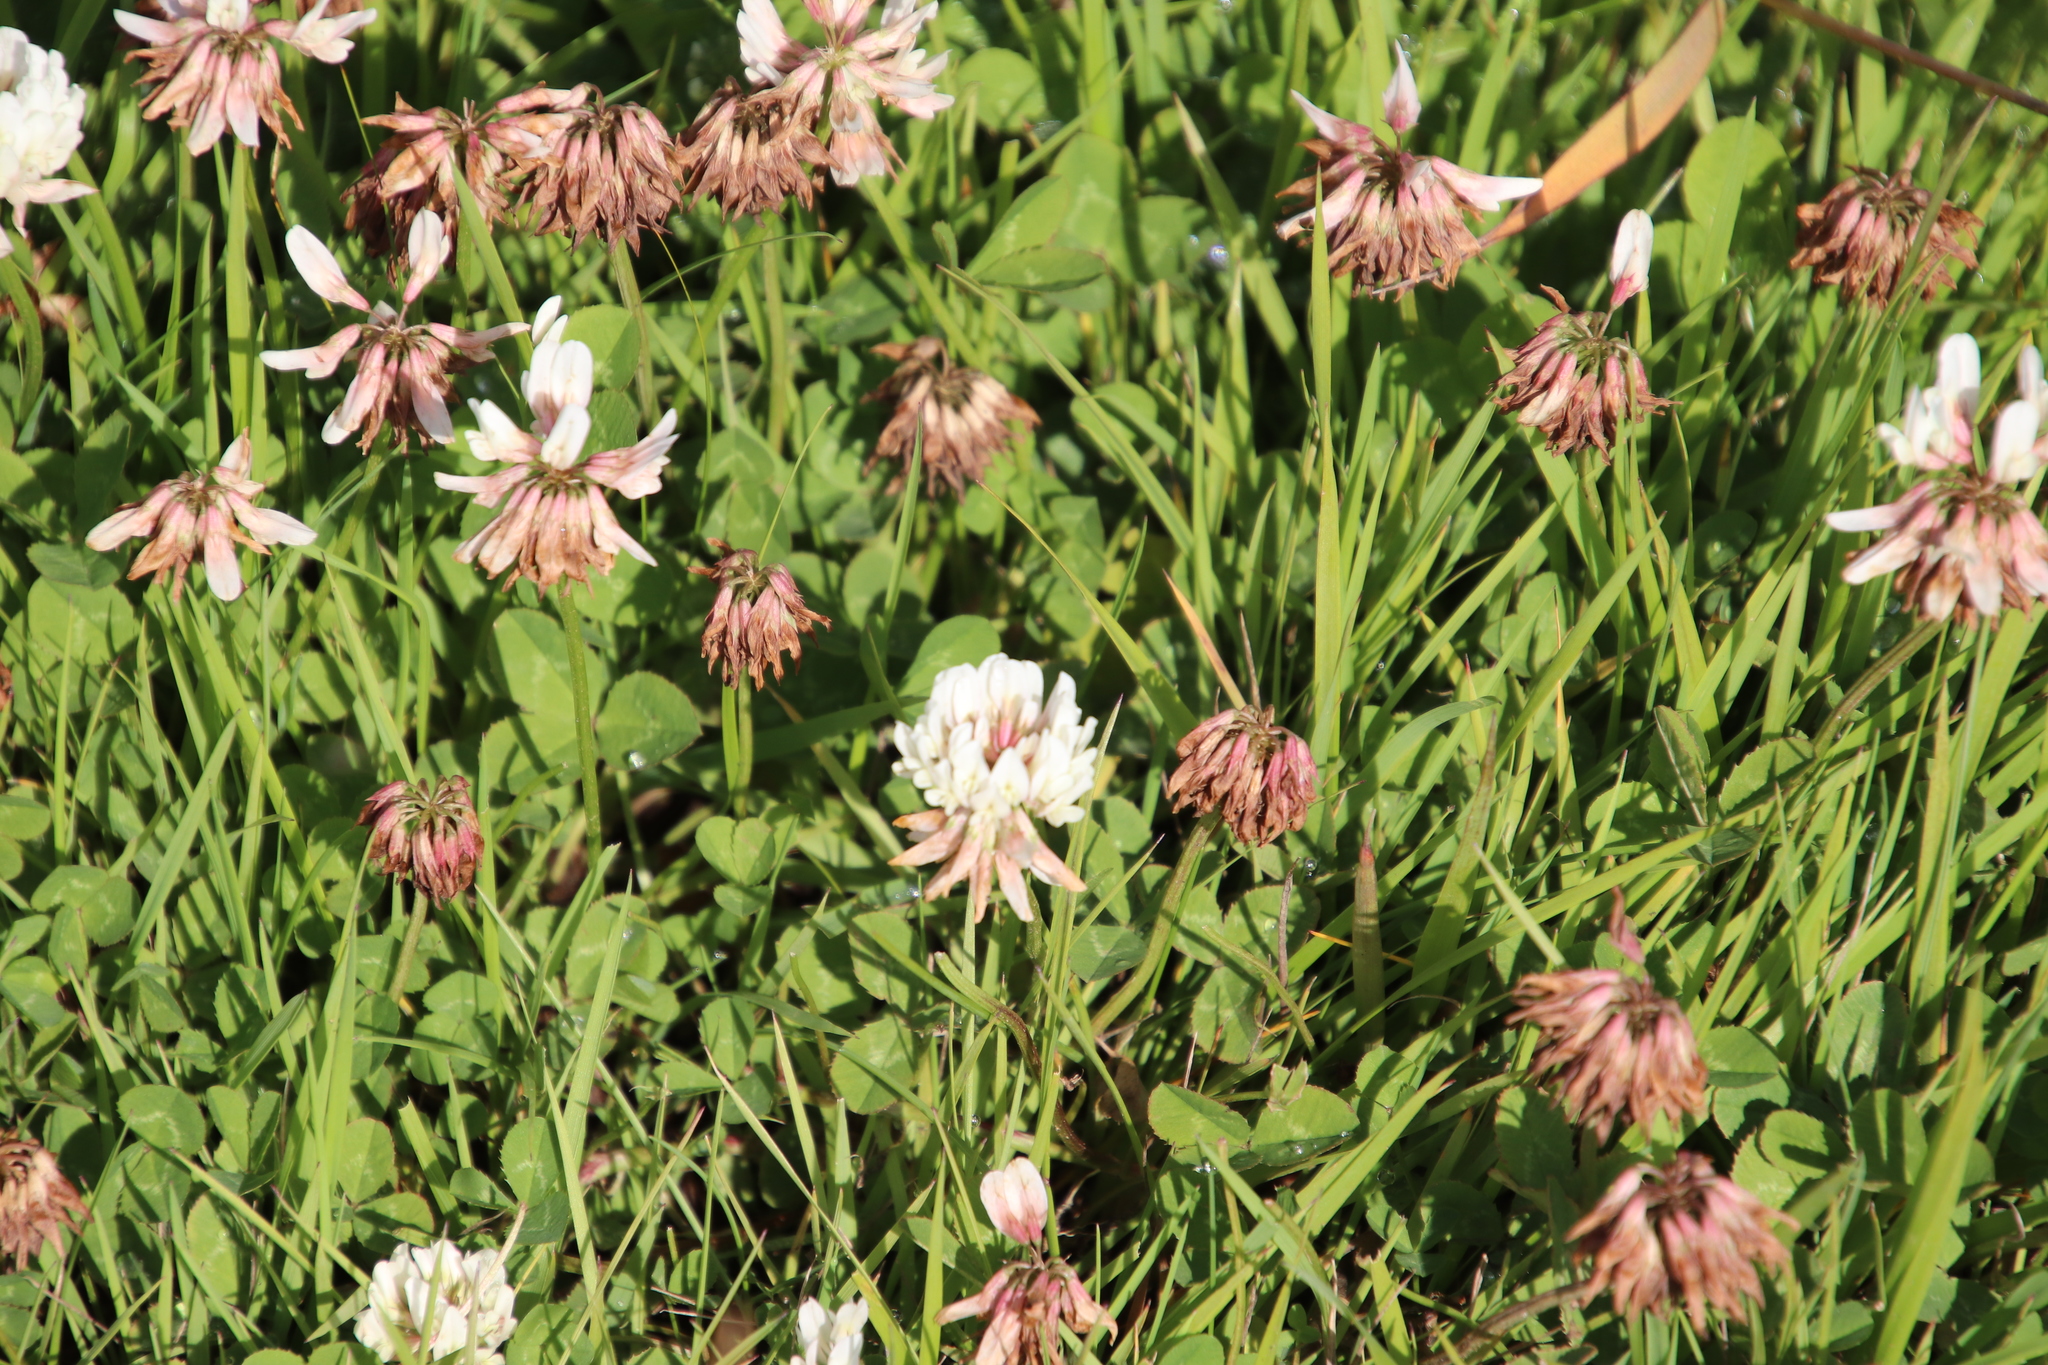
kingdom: Plantae
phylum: Tracheophyta
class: Magnoliopsida
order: Fabales
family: Fabaceae
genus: Trifolium
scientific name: Trifolium repens
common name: White clover
